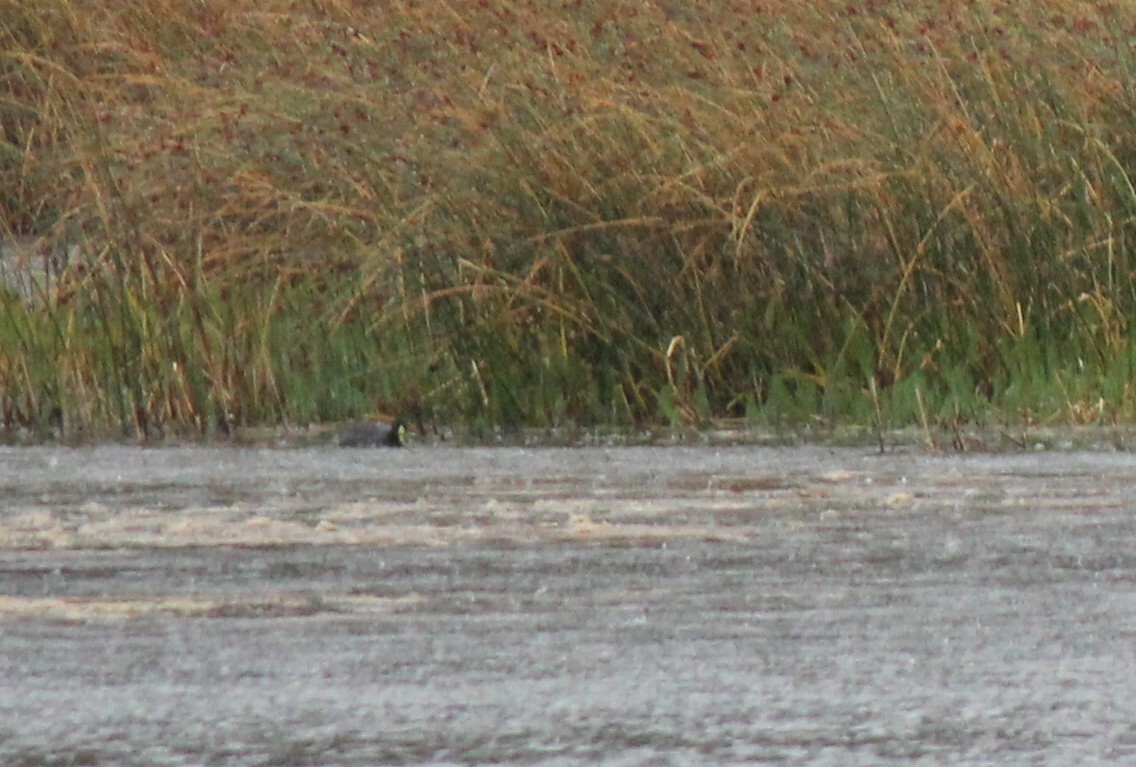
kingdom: Animalia
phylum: Chordata
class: Aves
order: Gruiformes
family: Rallidae
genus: Fulica
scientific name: Fulica armillata
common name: Red-gartered coot
